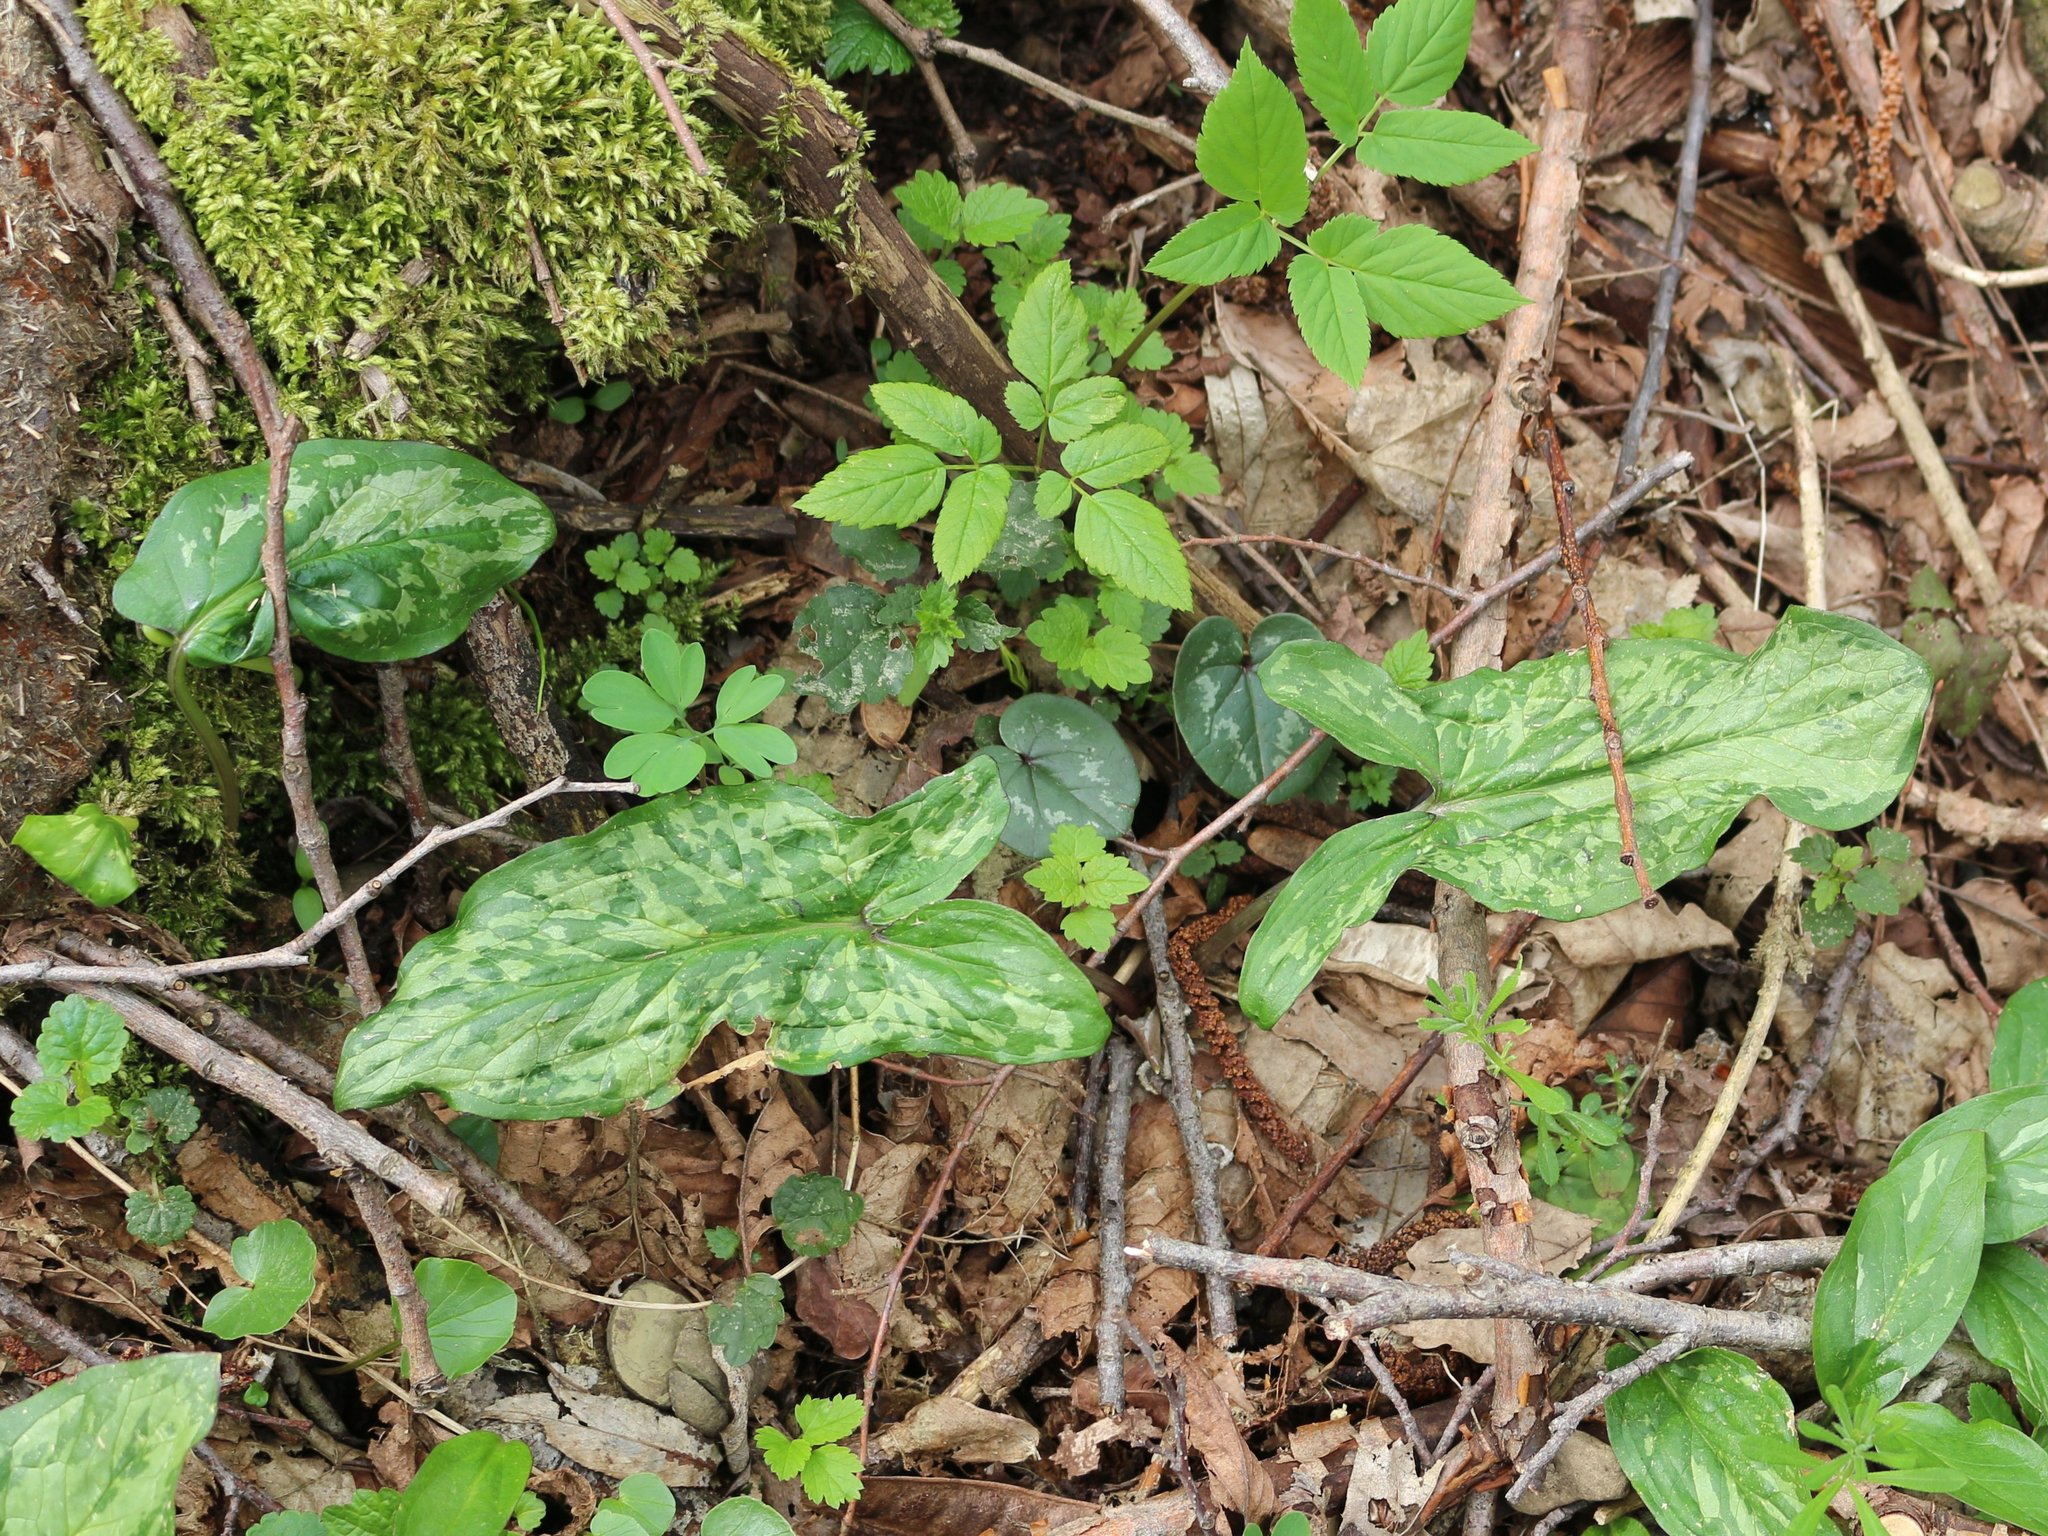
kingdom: Plantae
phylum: Tracheophyta
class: Liliopsida
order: Alismatales
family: Araceae
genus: Arum
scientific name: Arum maculatum
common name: Lords-and-ladies
